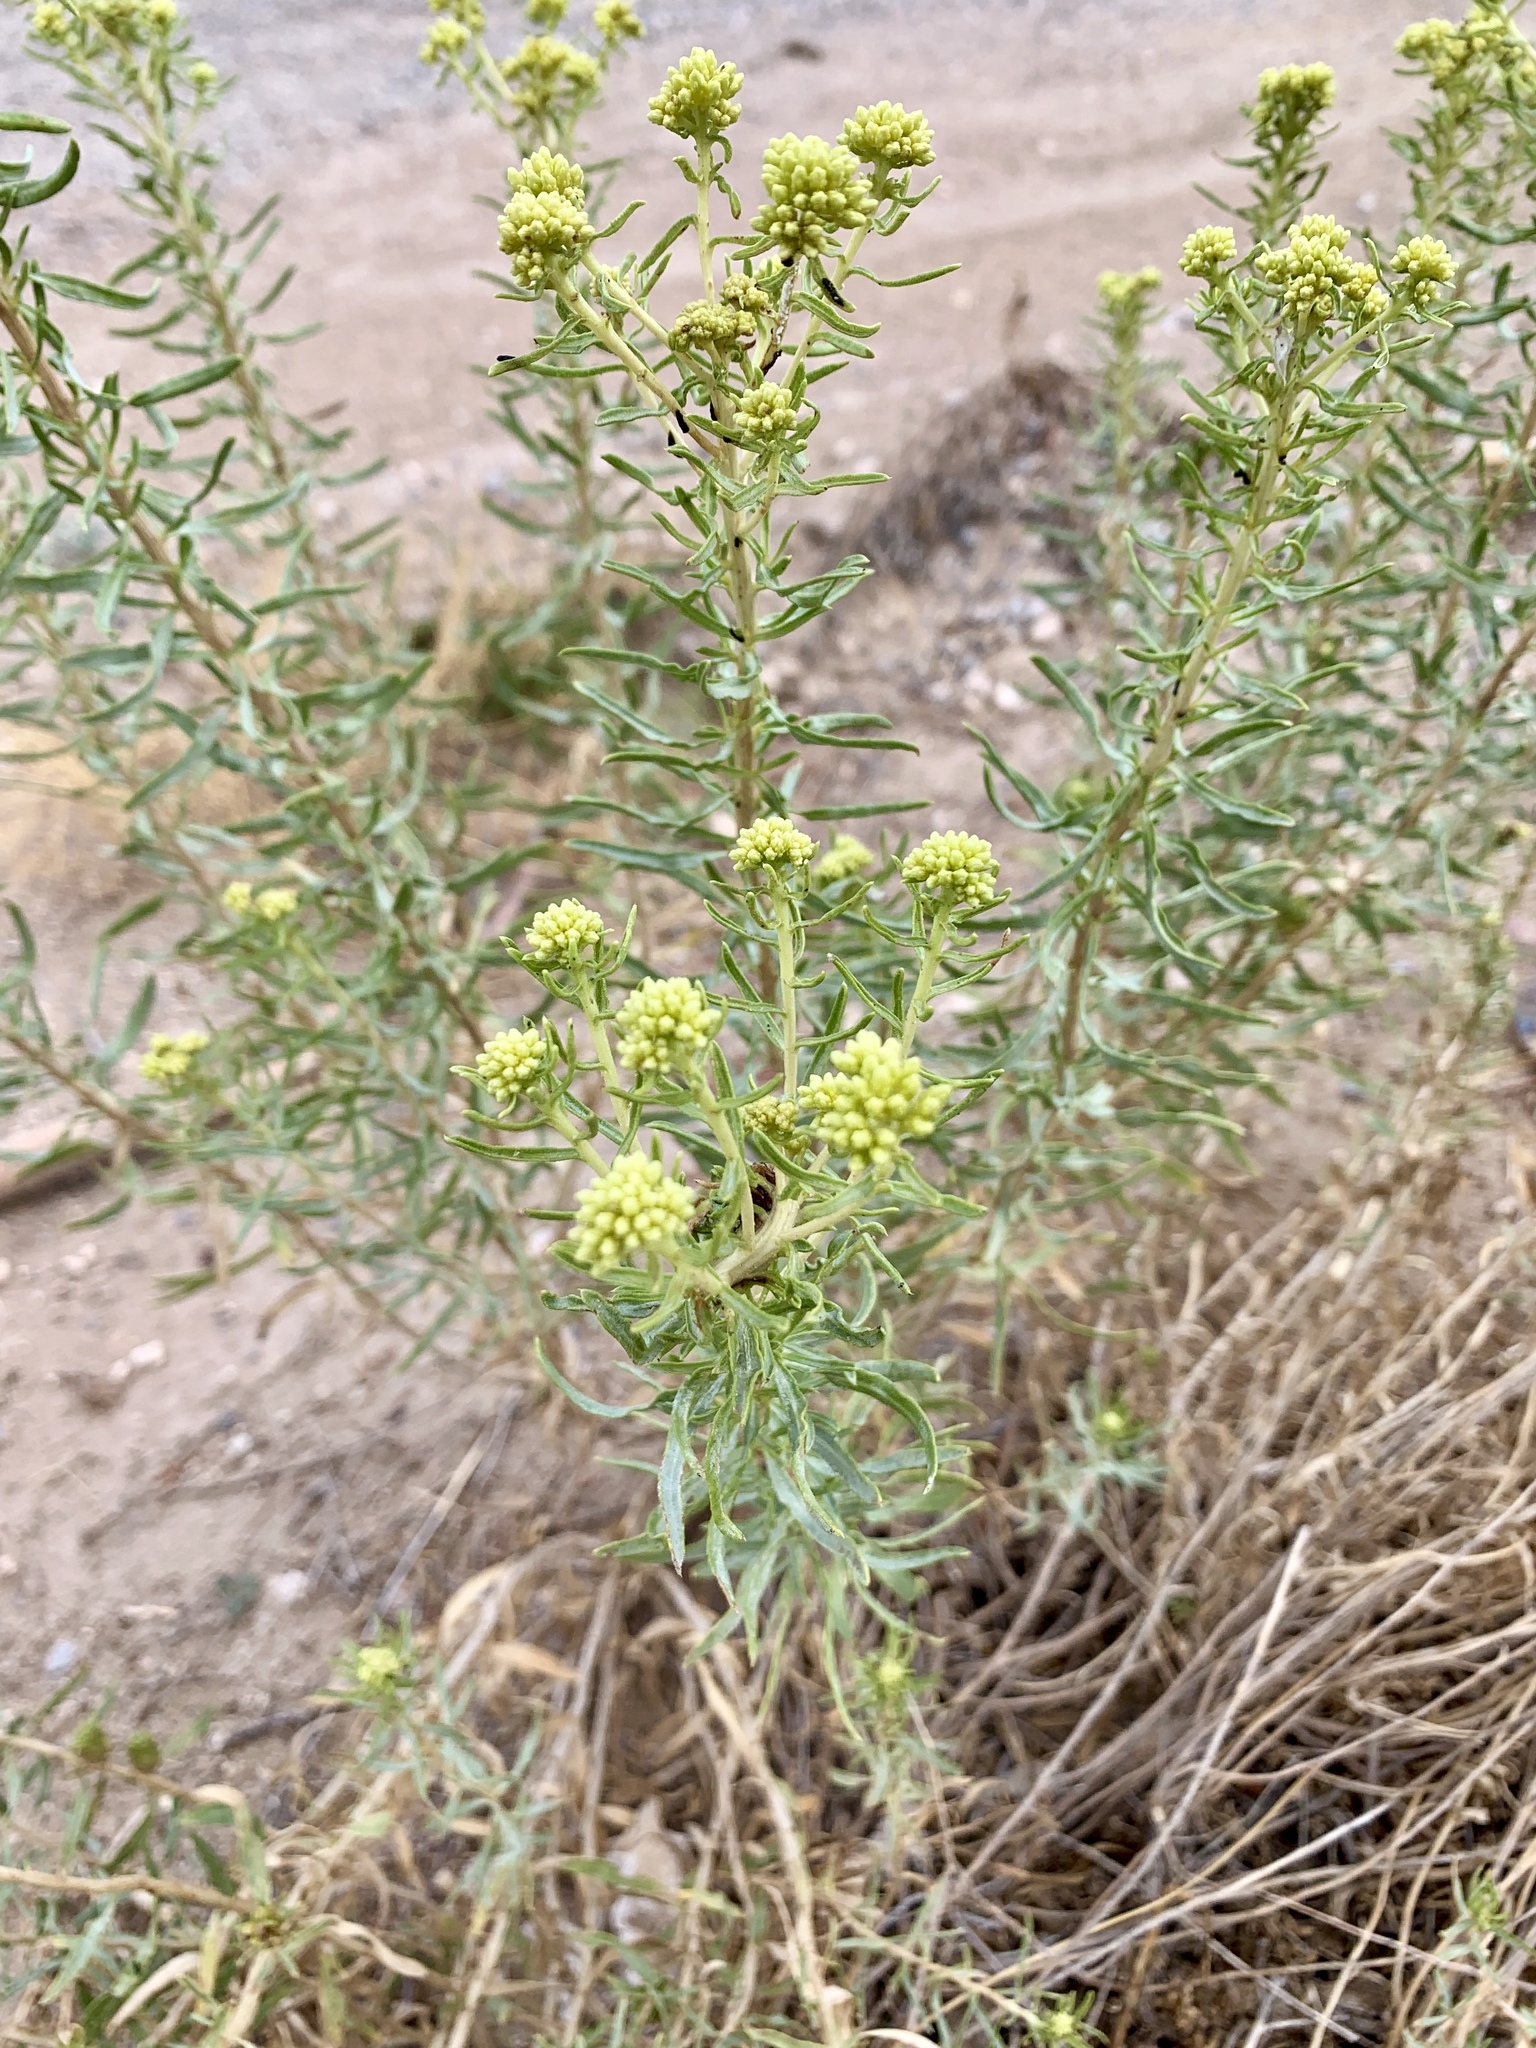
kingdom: Plantae
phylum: Tracheophyta
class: Magnoliopsida
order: Asterales
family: Asteraceae
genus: Isocoma
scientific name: Isocoma pluriflora
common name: Southern jimmyweed
